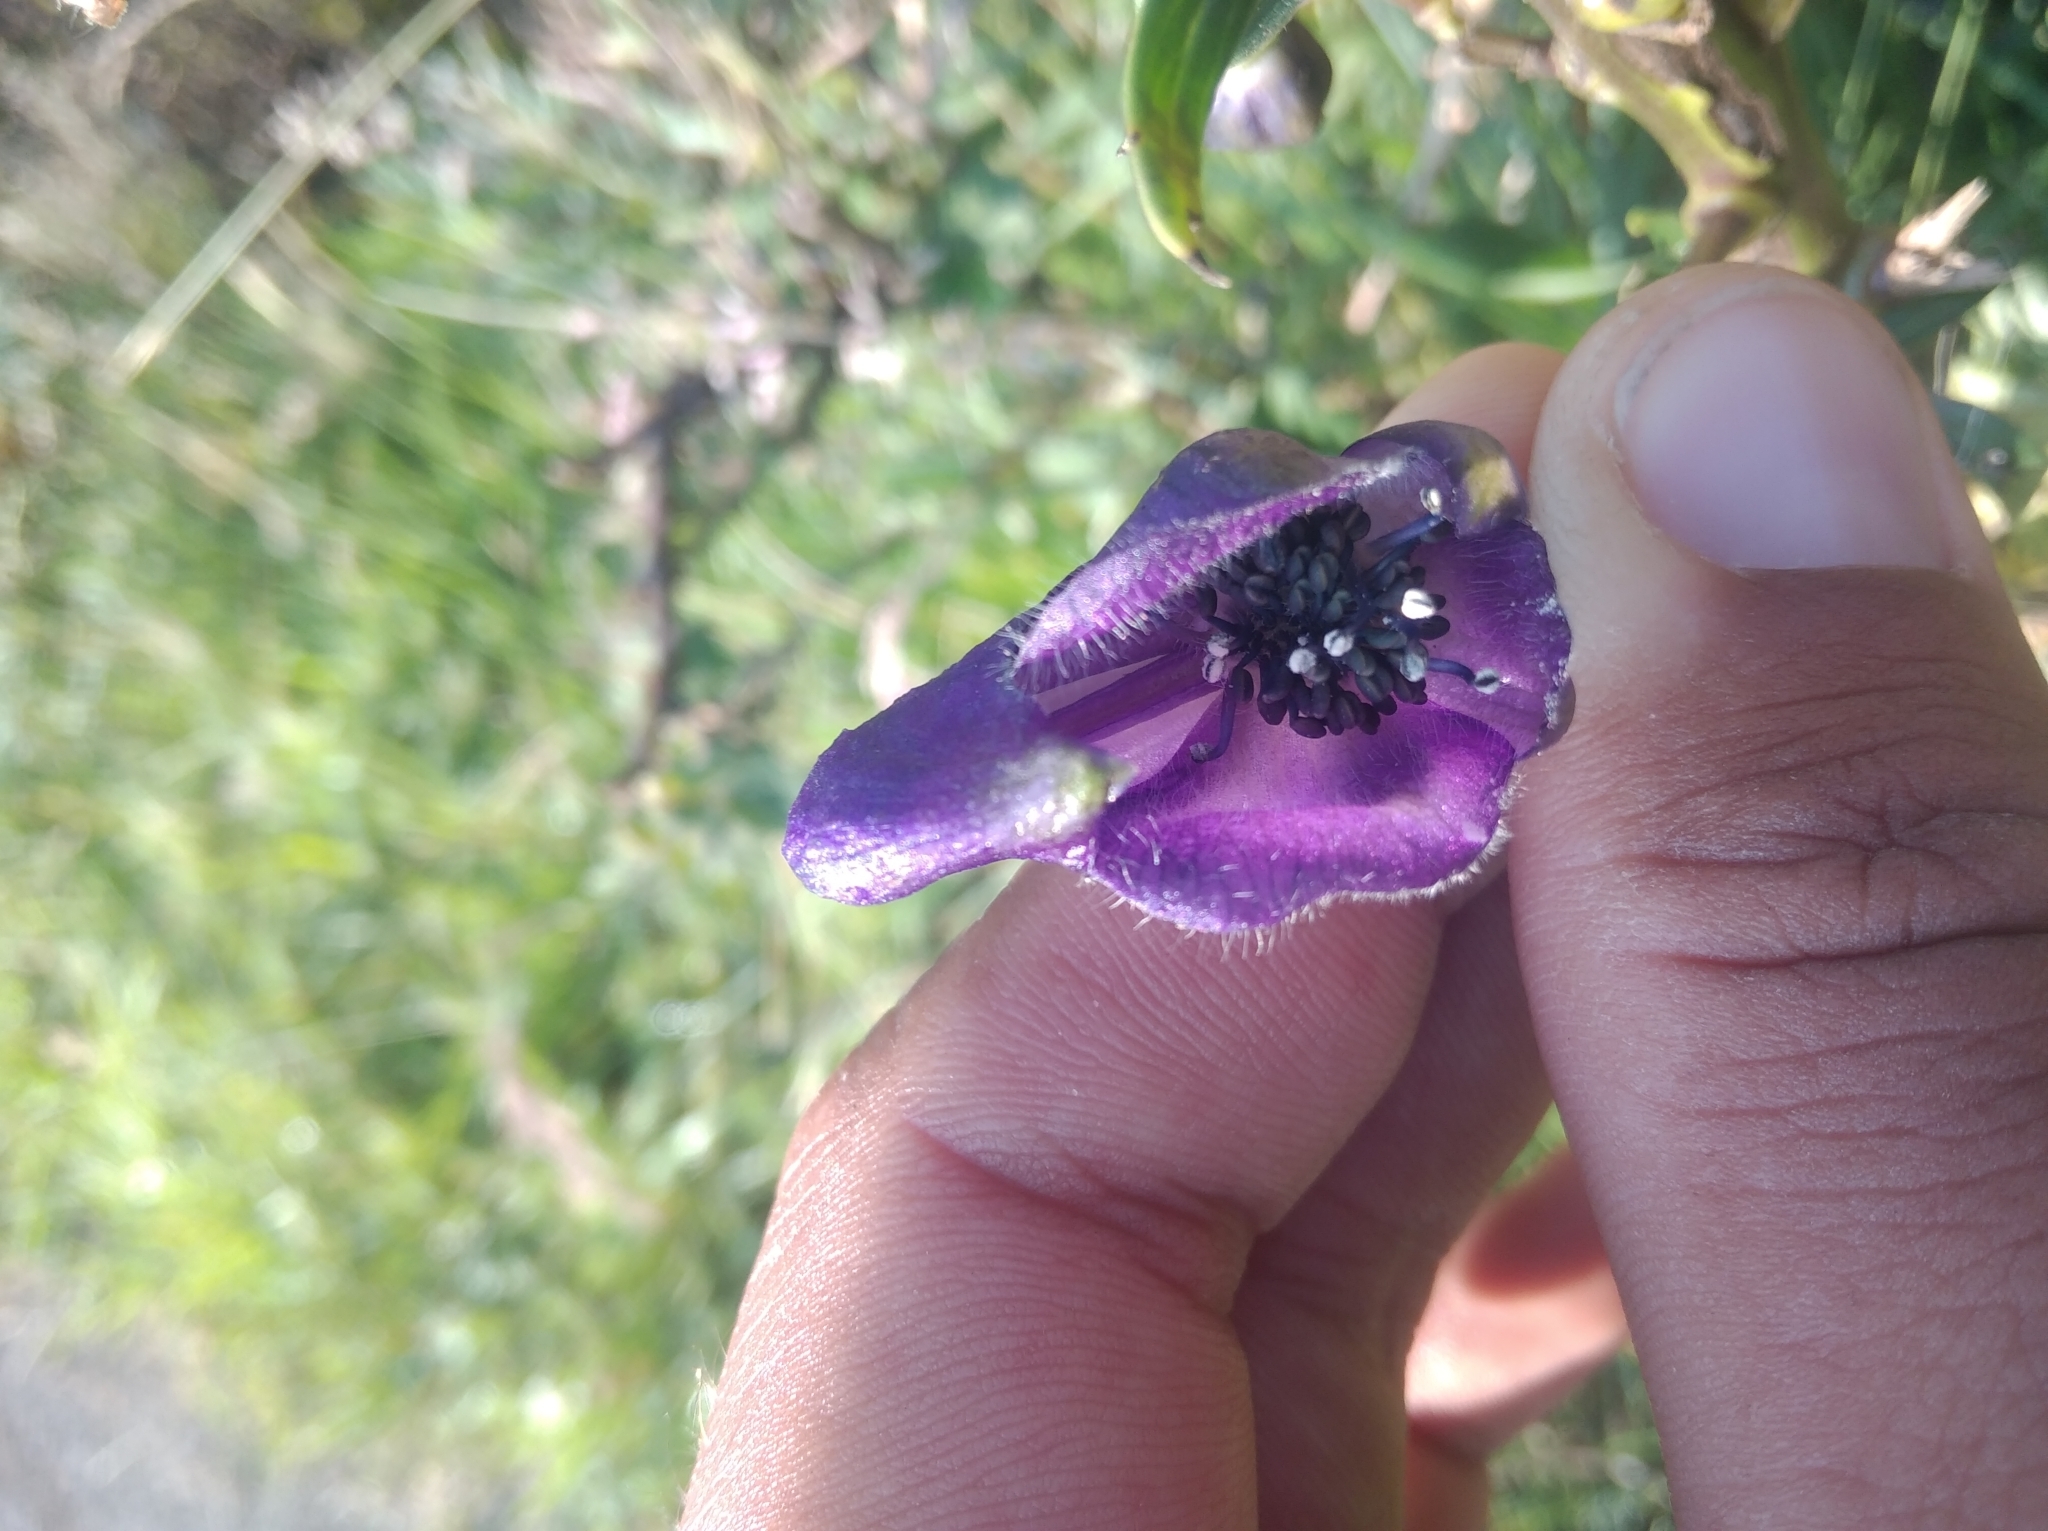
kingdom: Plantae
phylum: Tracheophyta
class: Magnoliopsida
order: Ranunculales
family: Ranunculaceae
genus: Aconitum
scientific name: Aconitum napellus
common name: Garden monkshood
